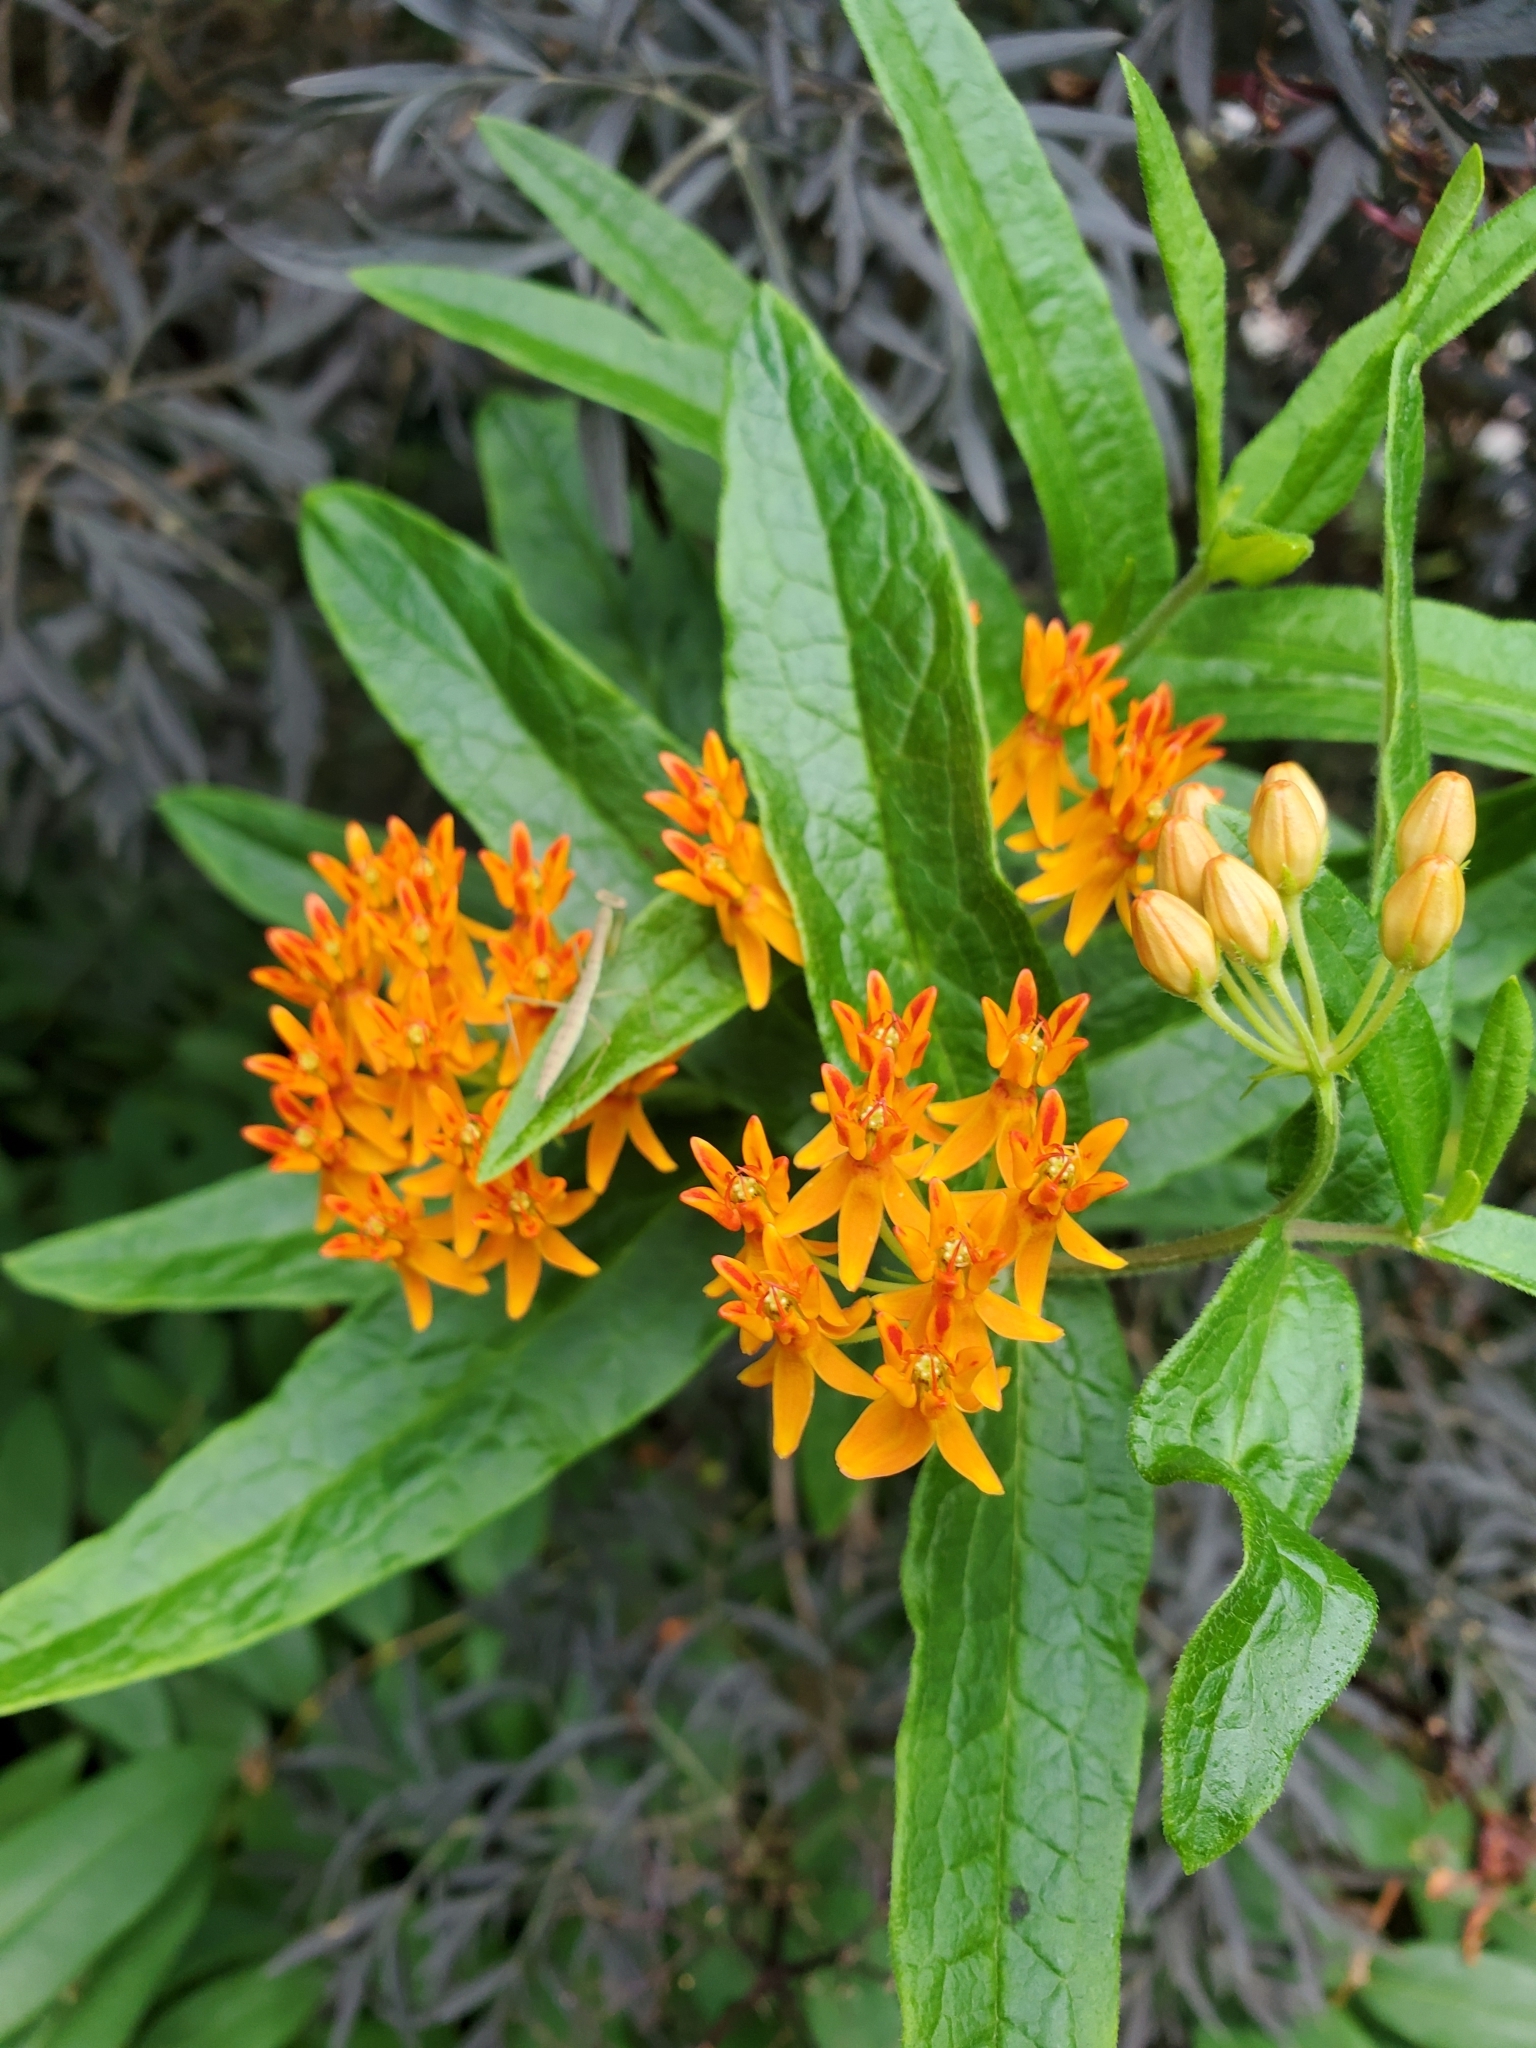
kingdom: Plantae
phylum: Tracheophyta
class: Magnoliopsida
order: Gentianales
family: Apocynaceae
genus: Asclepias
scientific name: Asclepias tuberosa
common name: Butterfly milkweed
